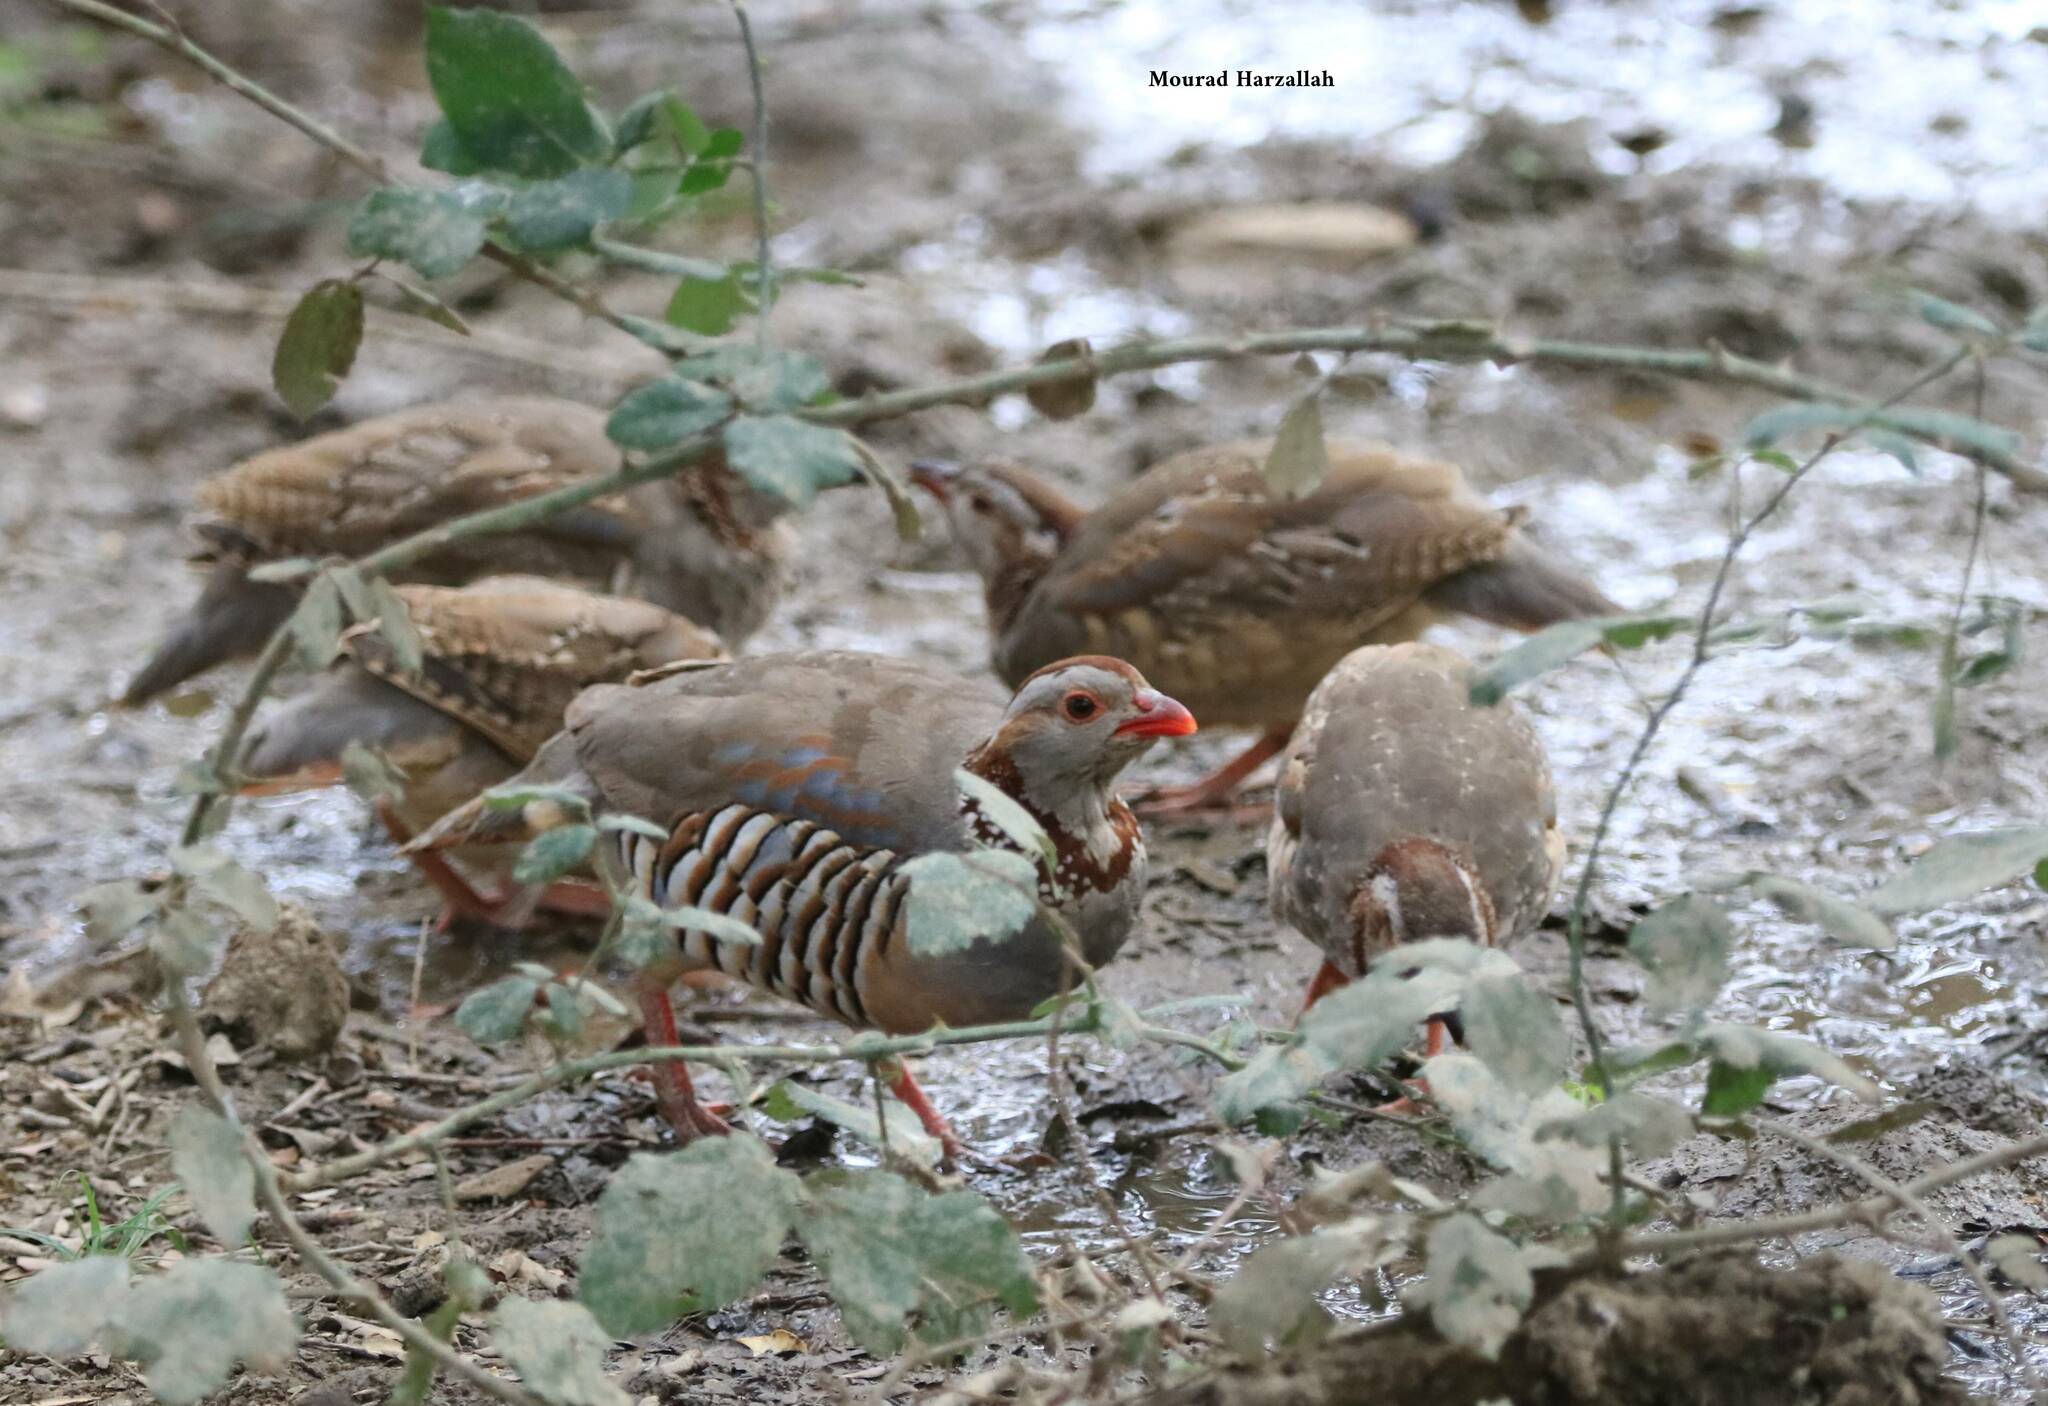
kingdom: Animalia
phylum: Chordata
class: Aves
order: Galliformes
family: Phasianidae
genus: Alectoris
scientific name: Alectoris barbara
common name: Barbary partridge
